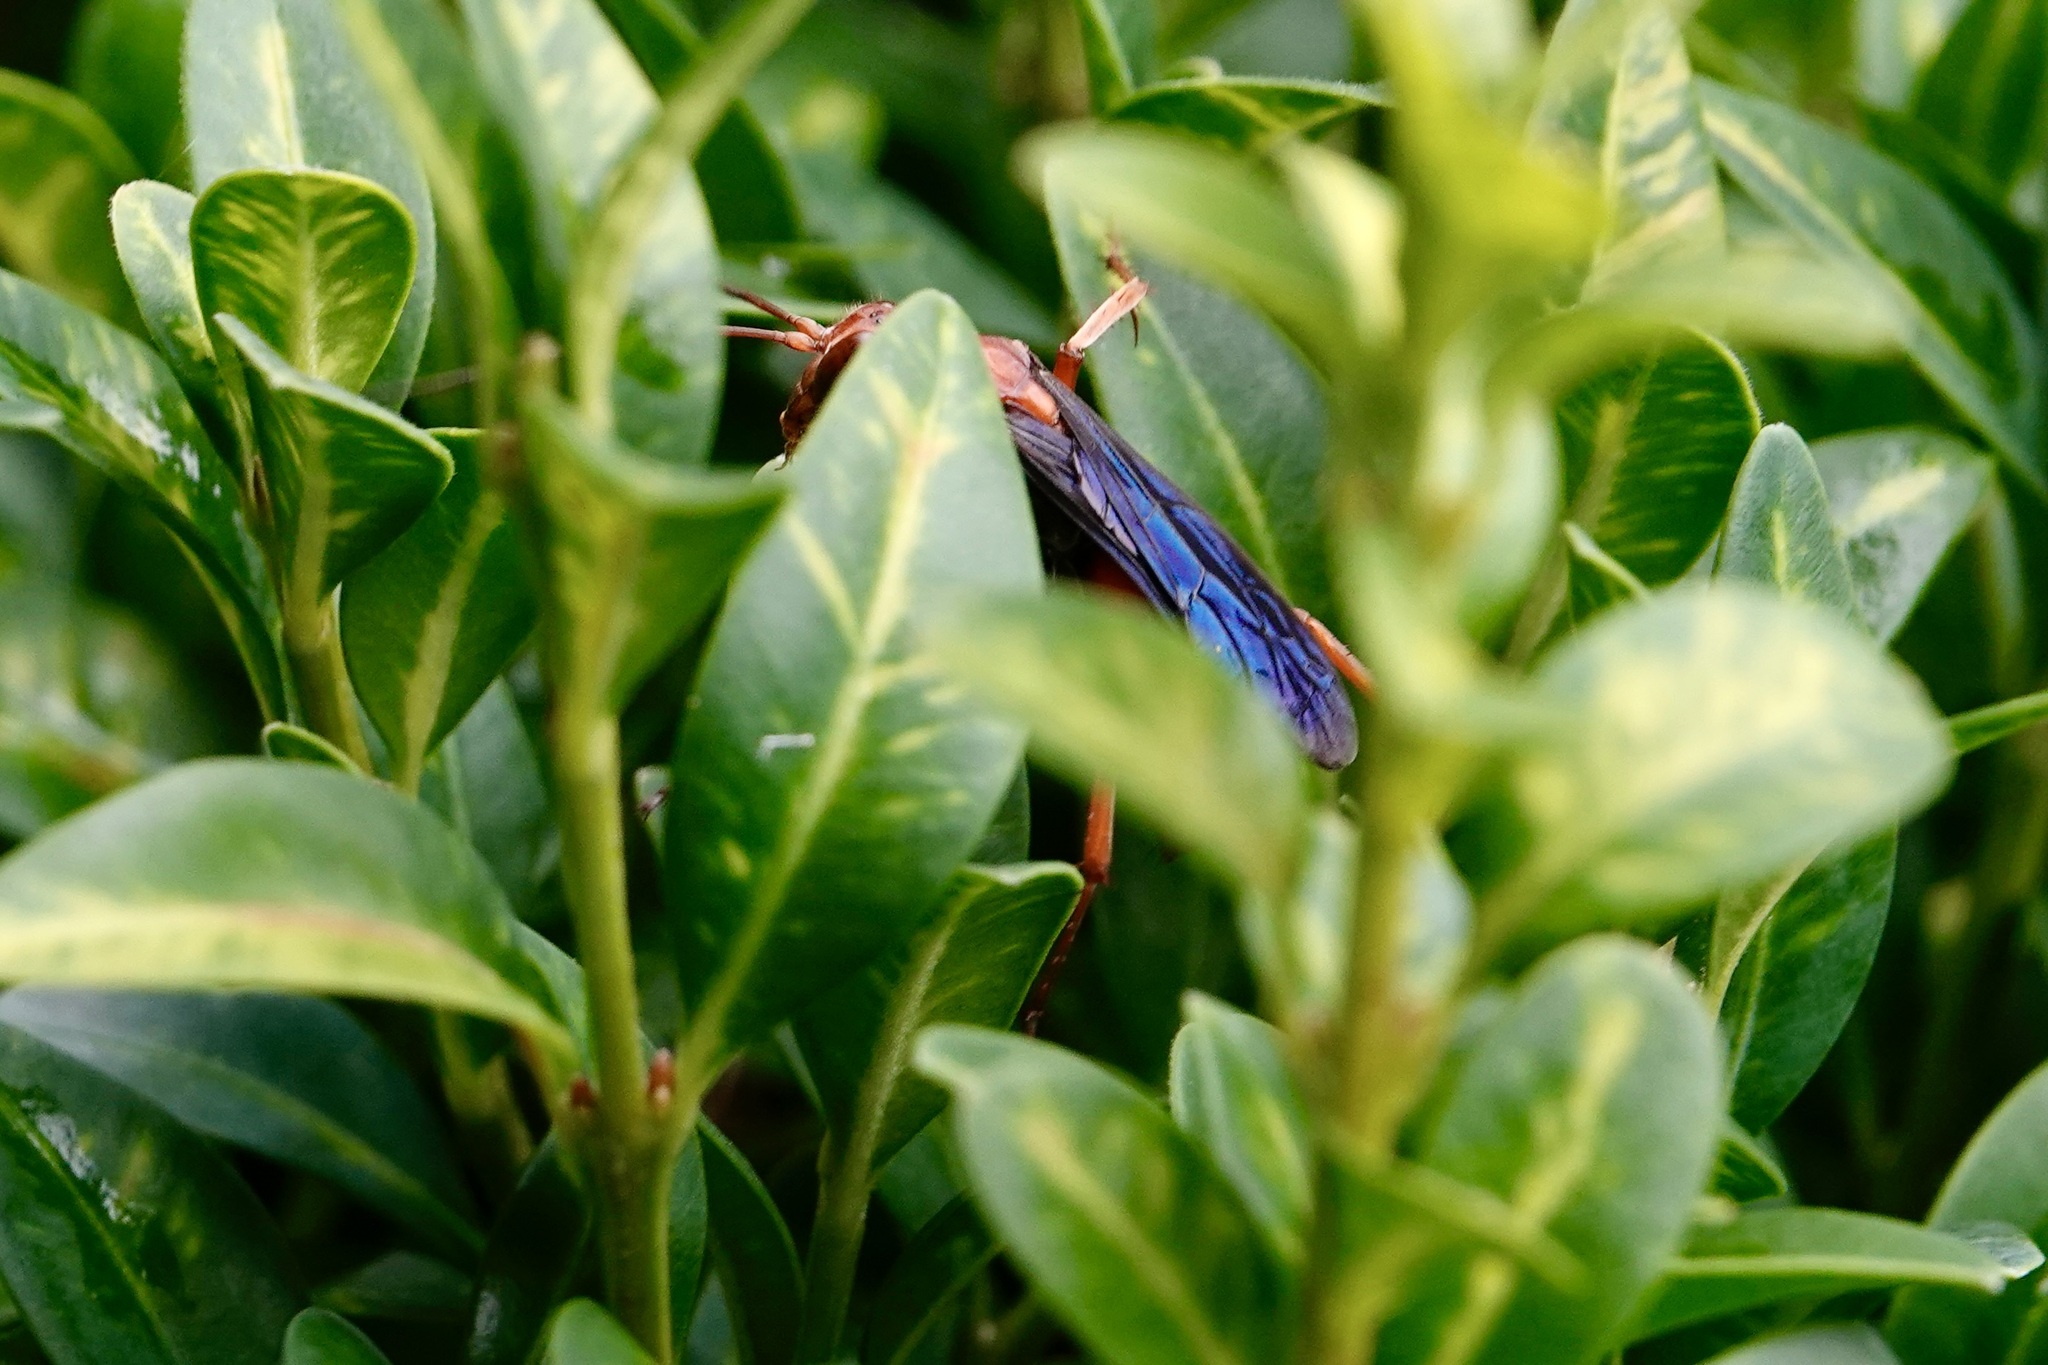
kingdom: Animalia
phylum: Arthropoda
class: Insecta
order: Hymenoptera
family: Pompilidae
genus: Tachypompilus
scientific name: Tachypompilus ferrugineus
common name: Rusty spider wasp
